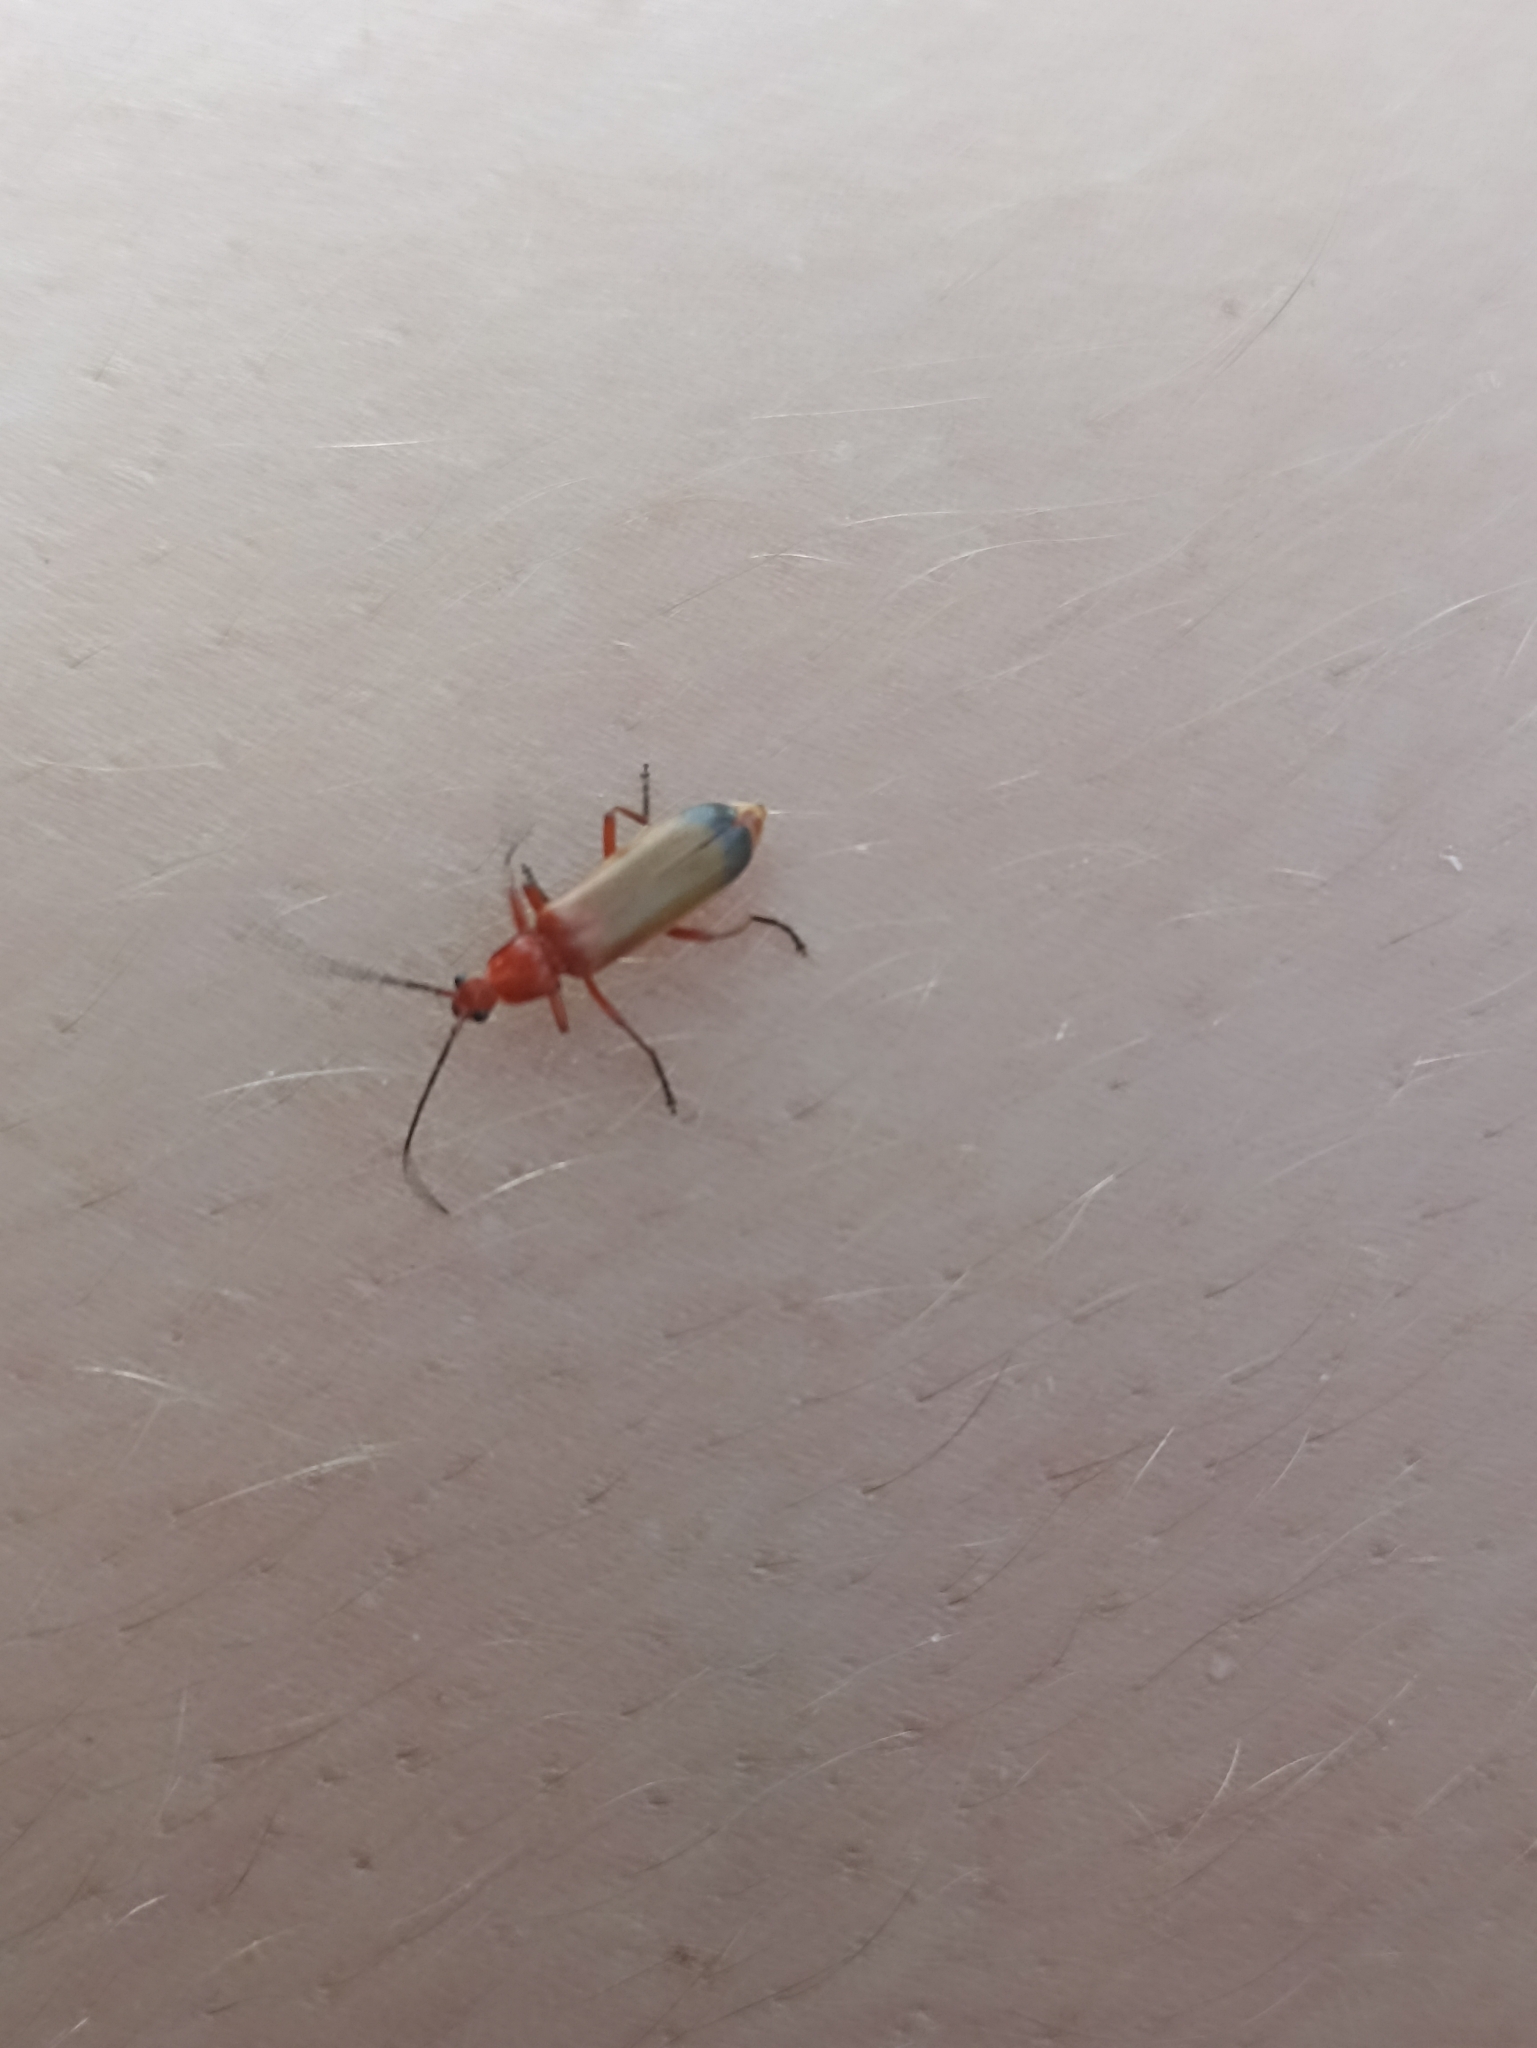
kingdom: Animalia
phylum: Arthropoda
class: Insecta
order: Coleoptera
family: Cantharidae
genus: Rhagonycha
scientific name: Rhagonycha fulva
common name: Common red soldier beetle
